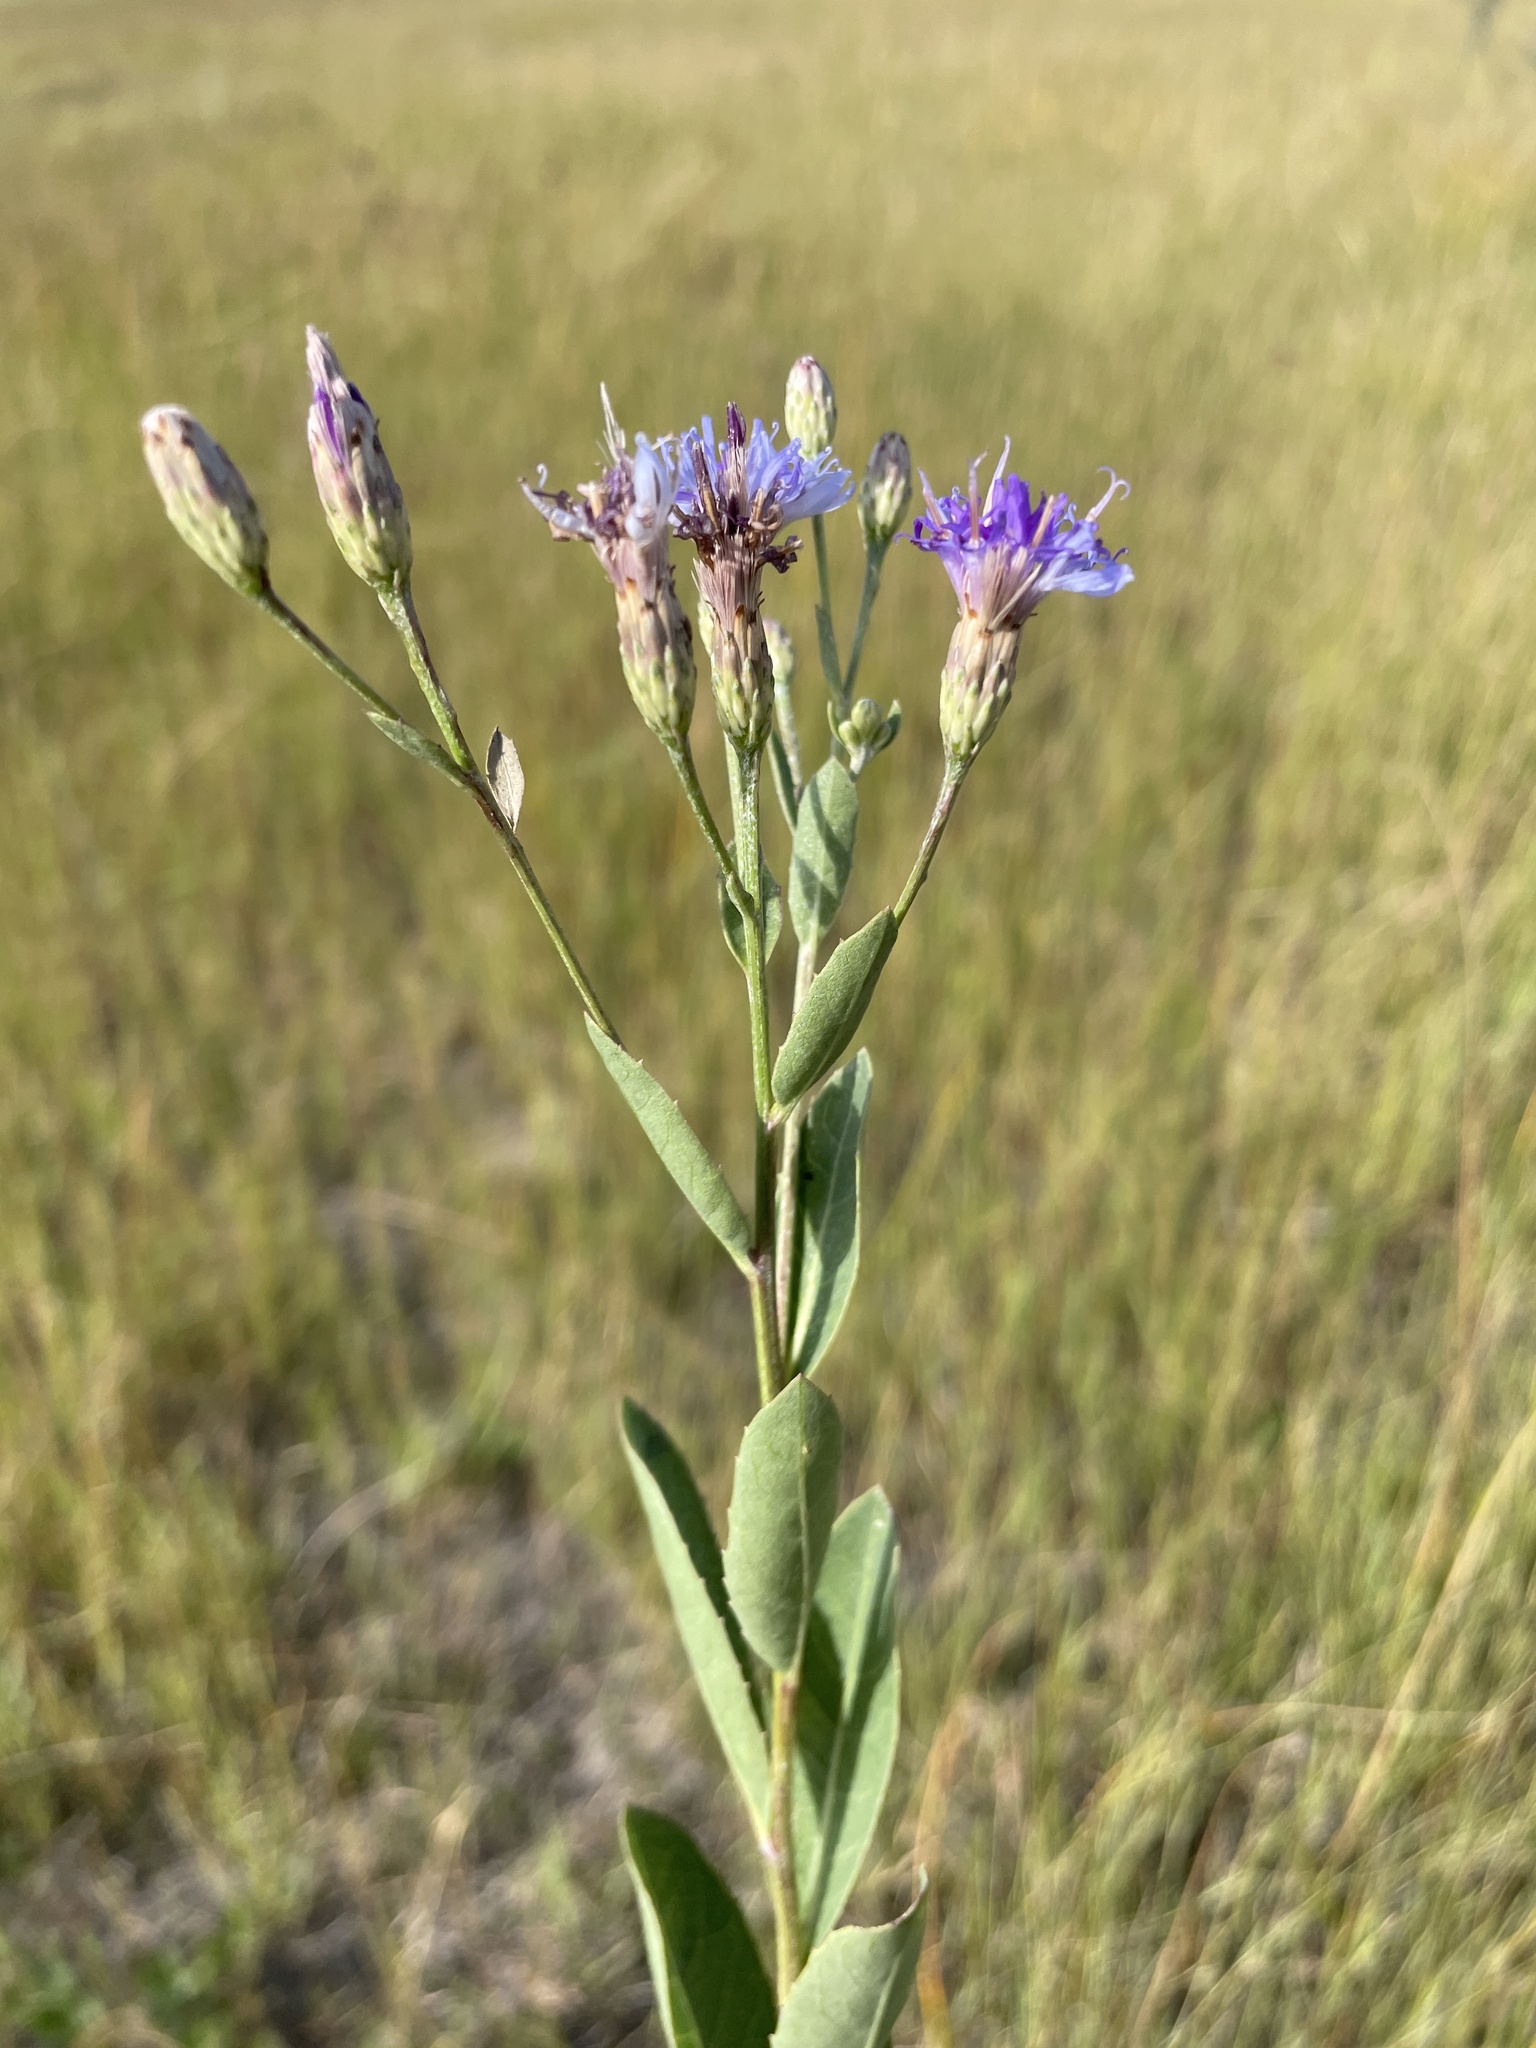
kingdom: Plantae
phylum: Tracheophyta
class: Magnoliopsida
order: Asterales
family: Asteraceae
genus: Linzia
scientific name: Linzia glabra
